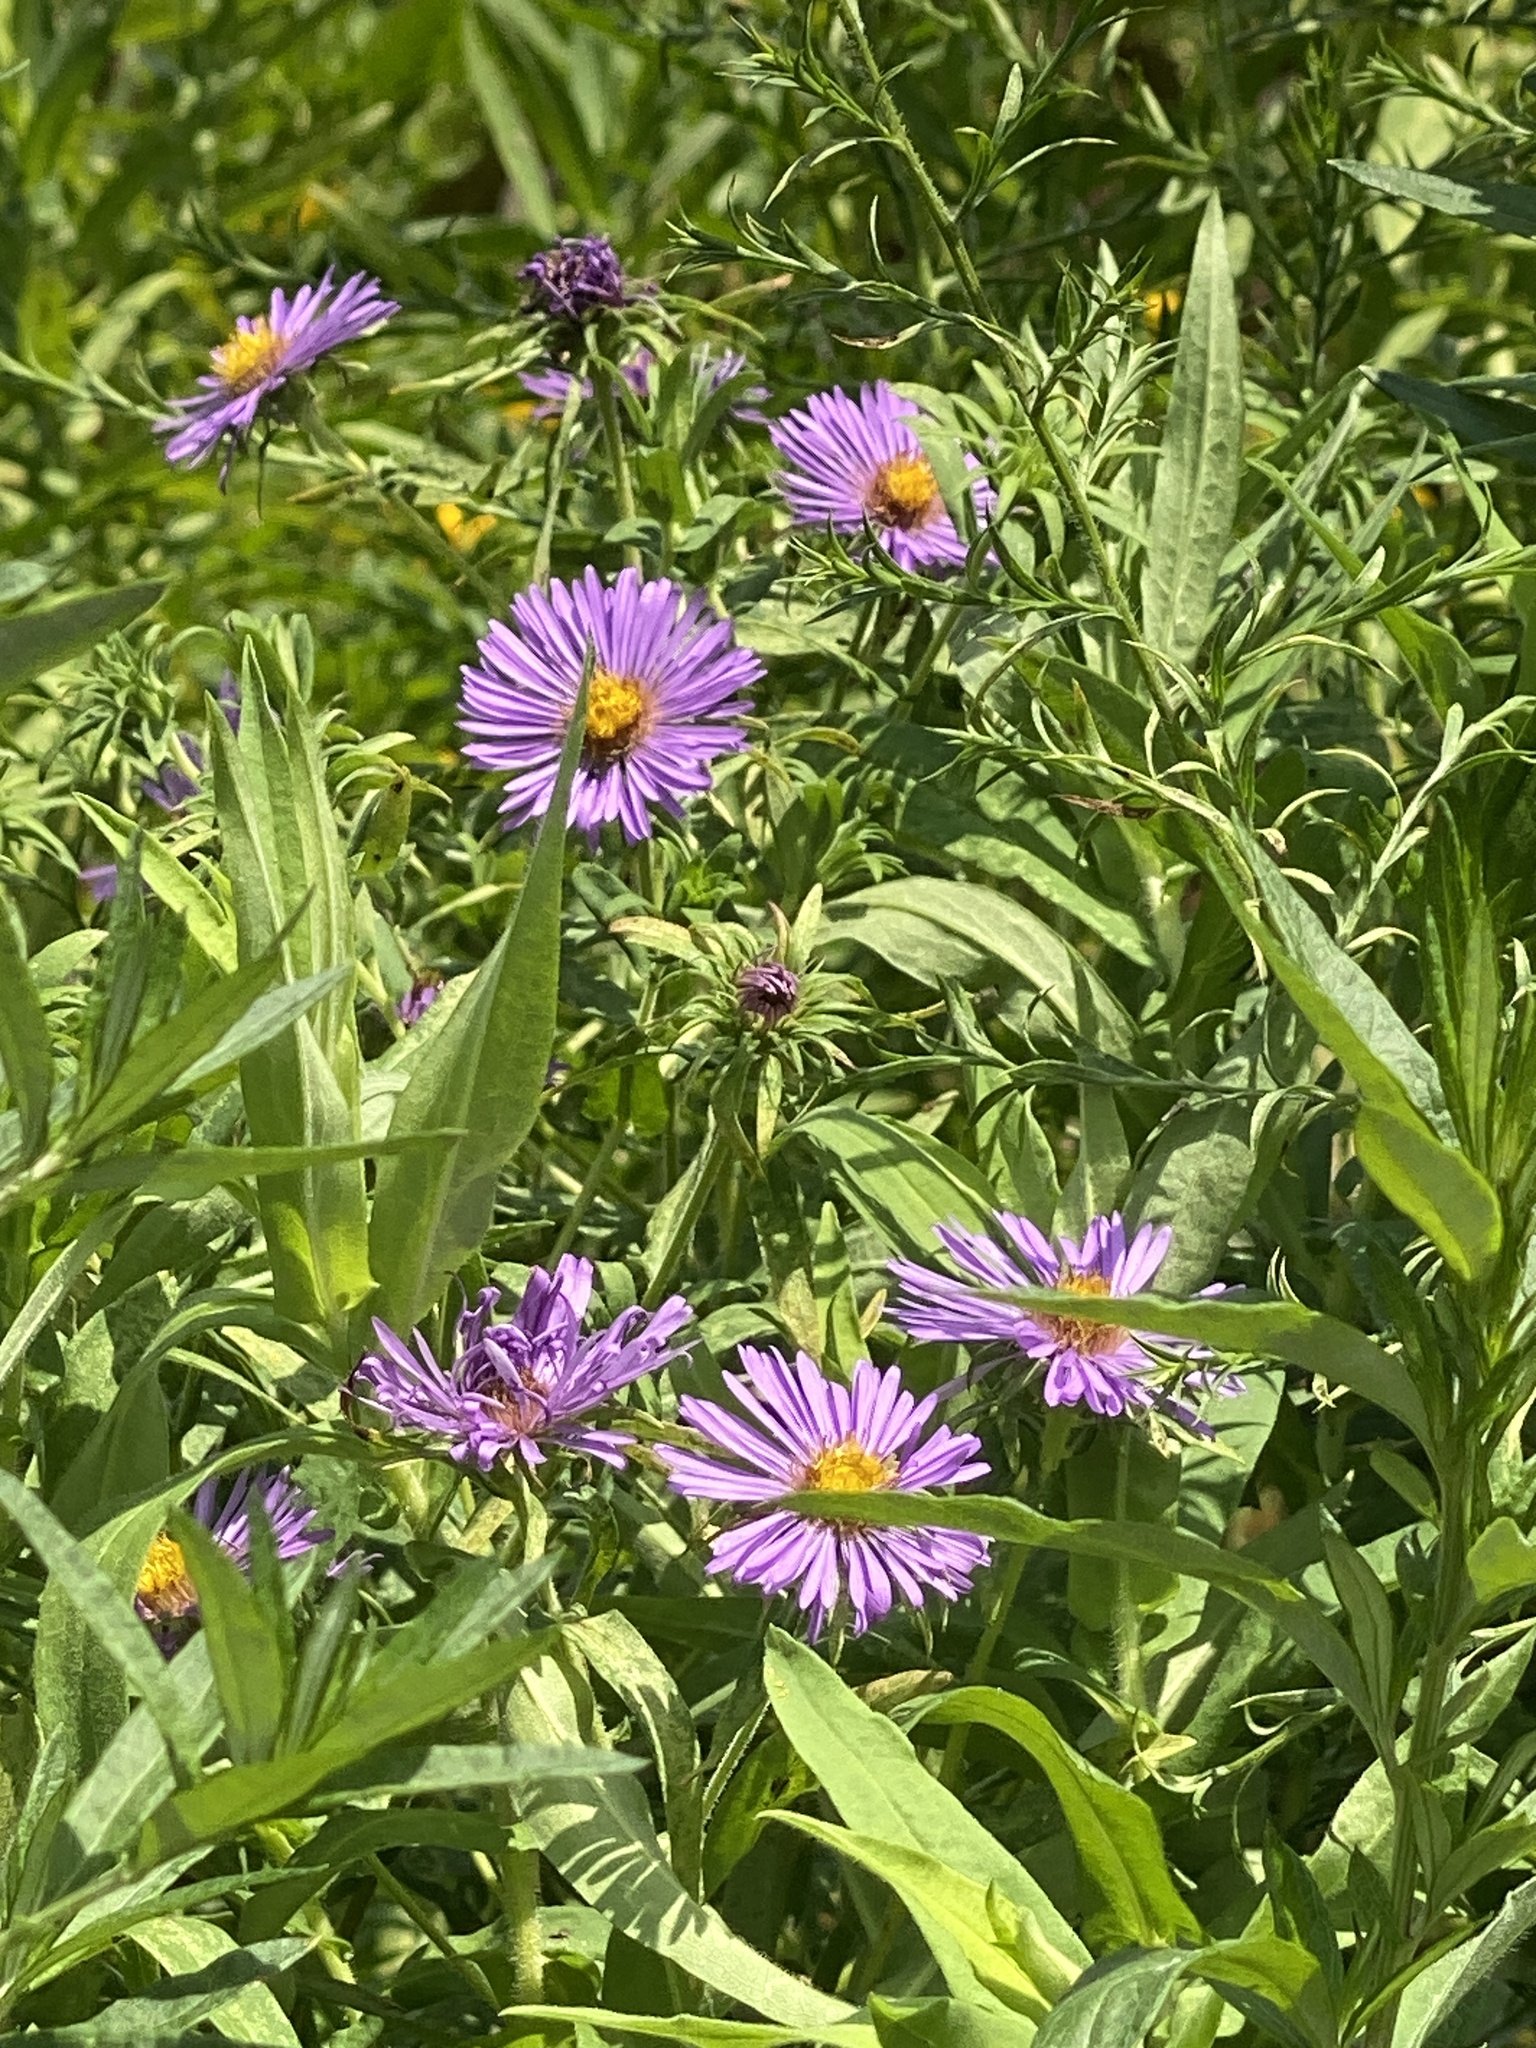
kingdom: Plantae
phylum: Tracheophyta
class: Magnoliopsida
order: Asterales
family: Asteraceae
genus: Symphyotrichum
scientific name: Symphyotrichum novae-angliae
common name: Michaelmas daisy
